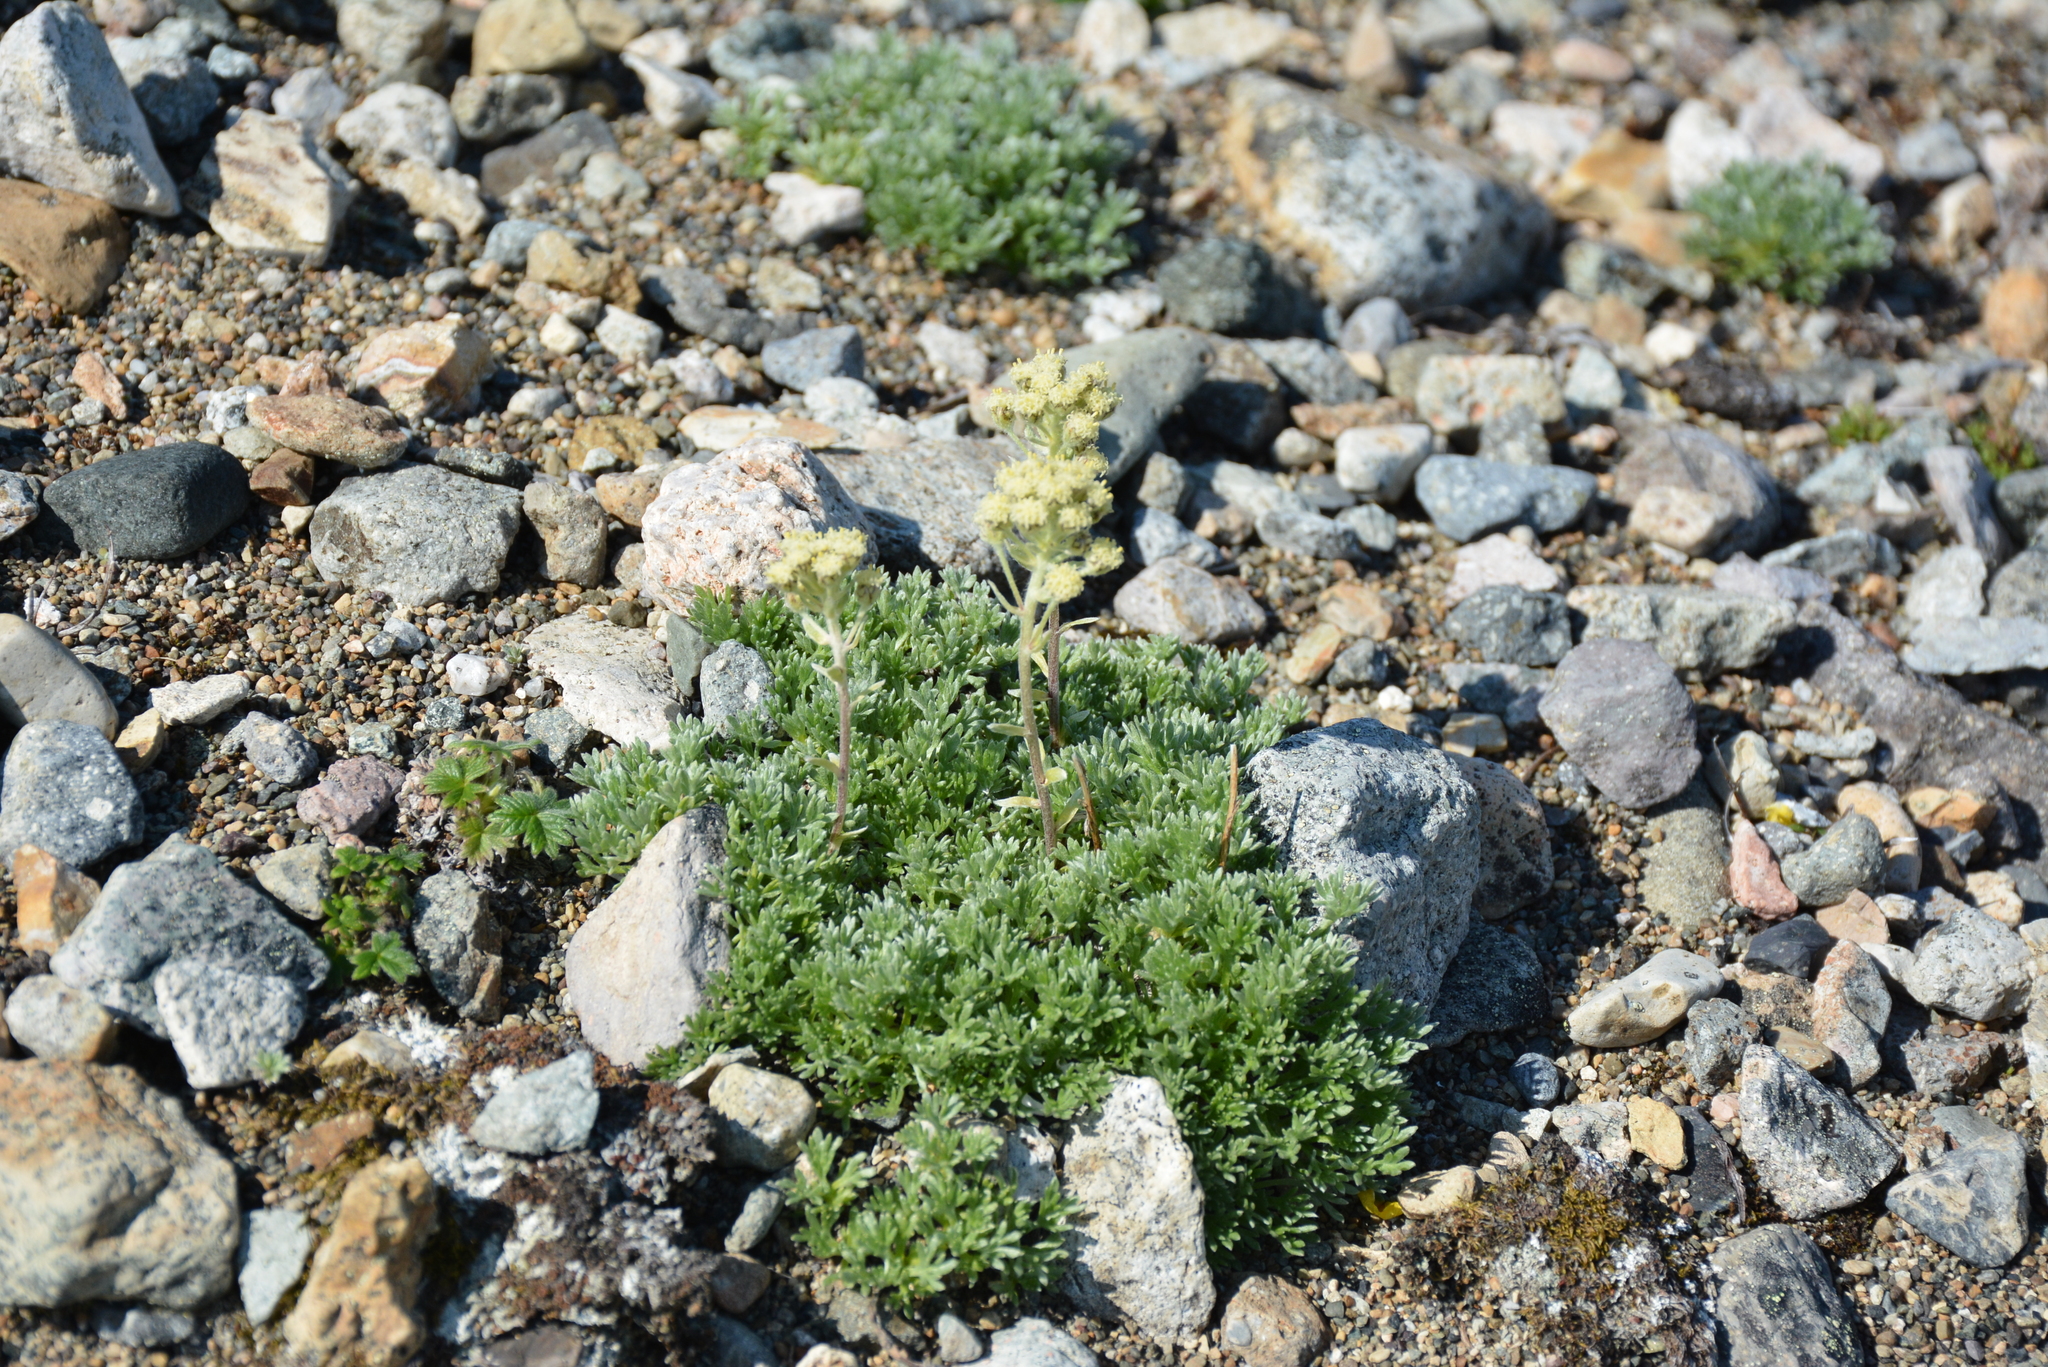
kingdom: Plantae
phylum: Tracheophyta
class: Magnoliopsida
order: Asterales
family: Asteraceae
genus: Artemisia
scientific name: Artemisia glomerata
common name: Pacific alpine wormwood
